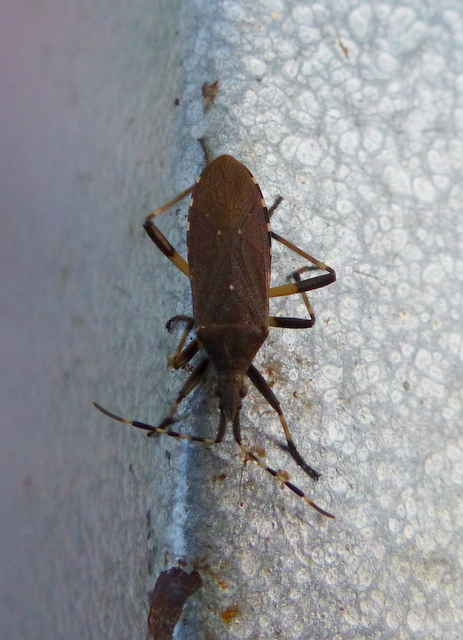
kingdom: Animalia
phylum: Arthropoda
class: Insecta
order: Hemiptera
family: Stenocephalidae
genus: Dicranocephalus
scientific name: Dicranocephalus agilis
